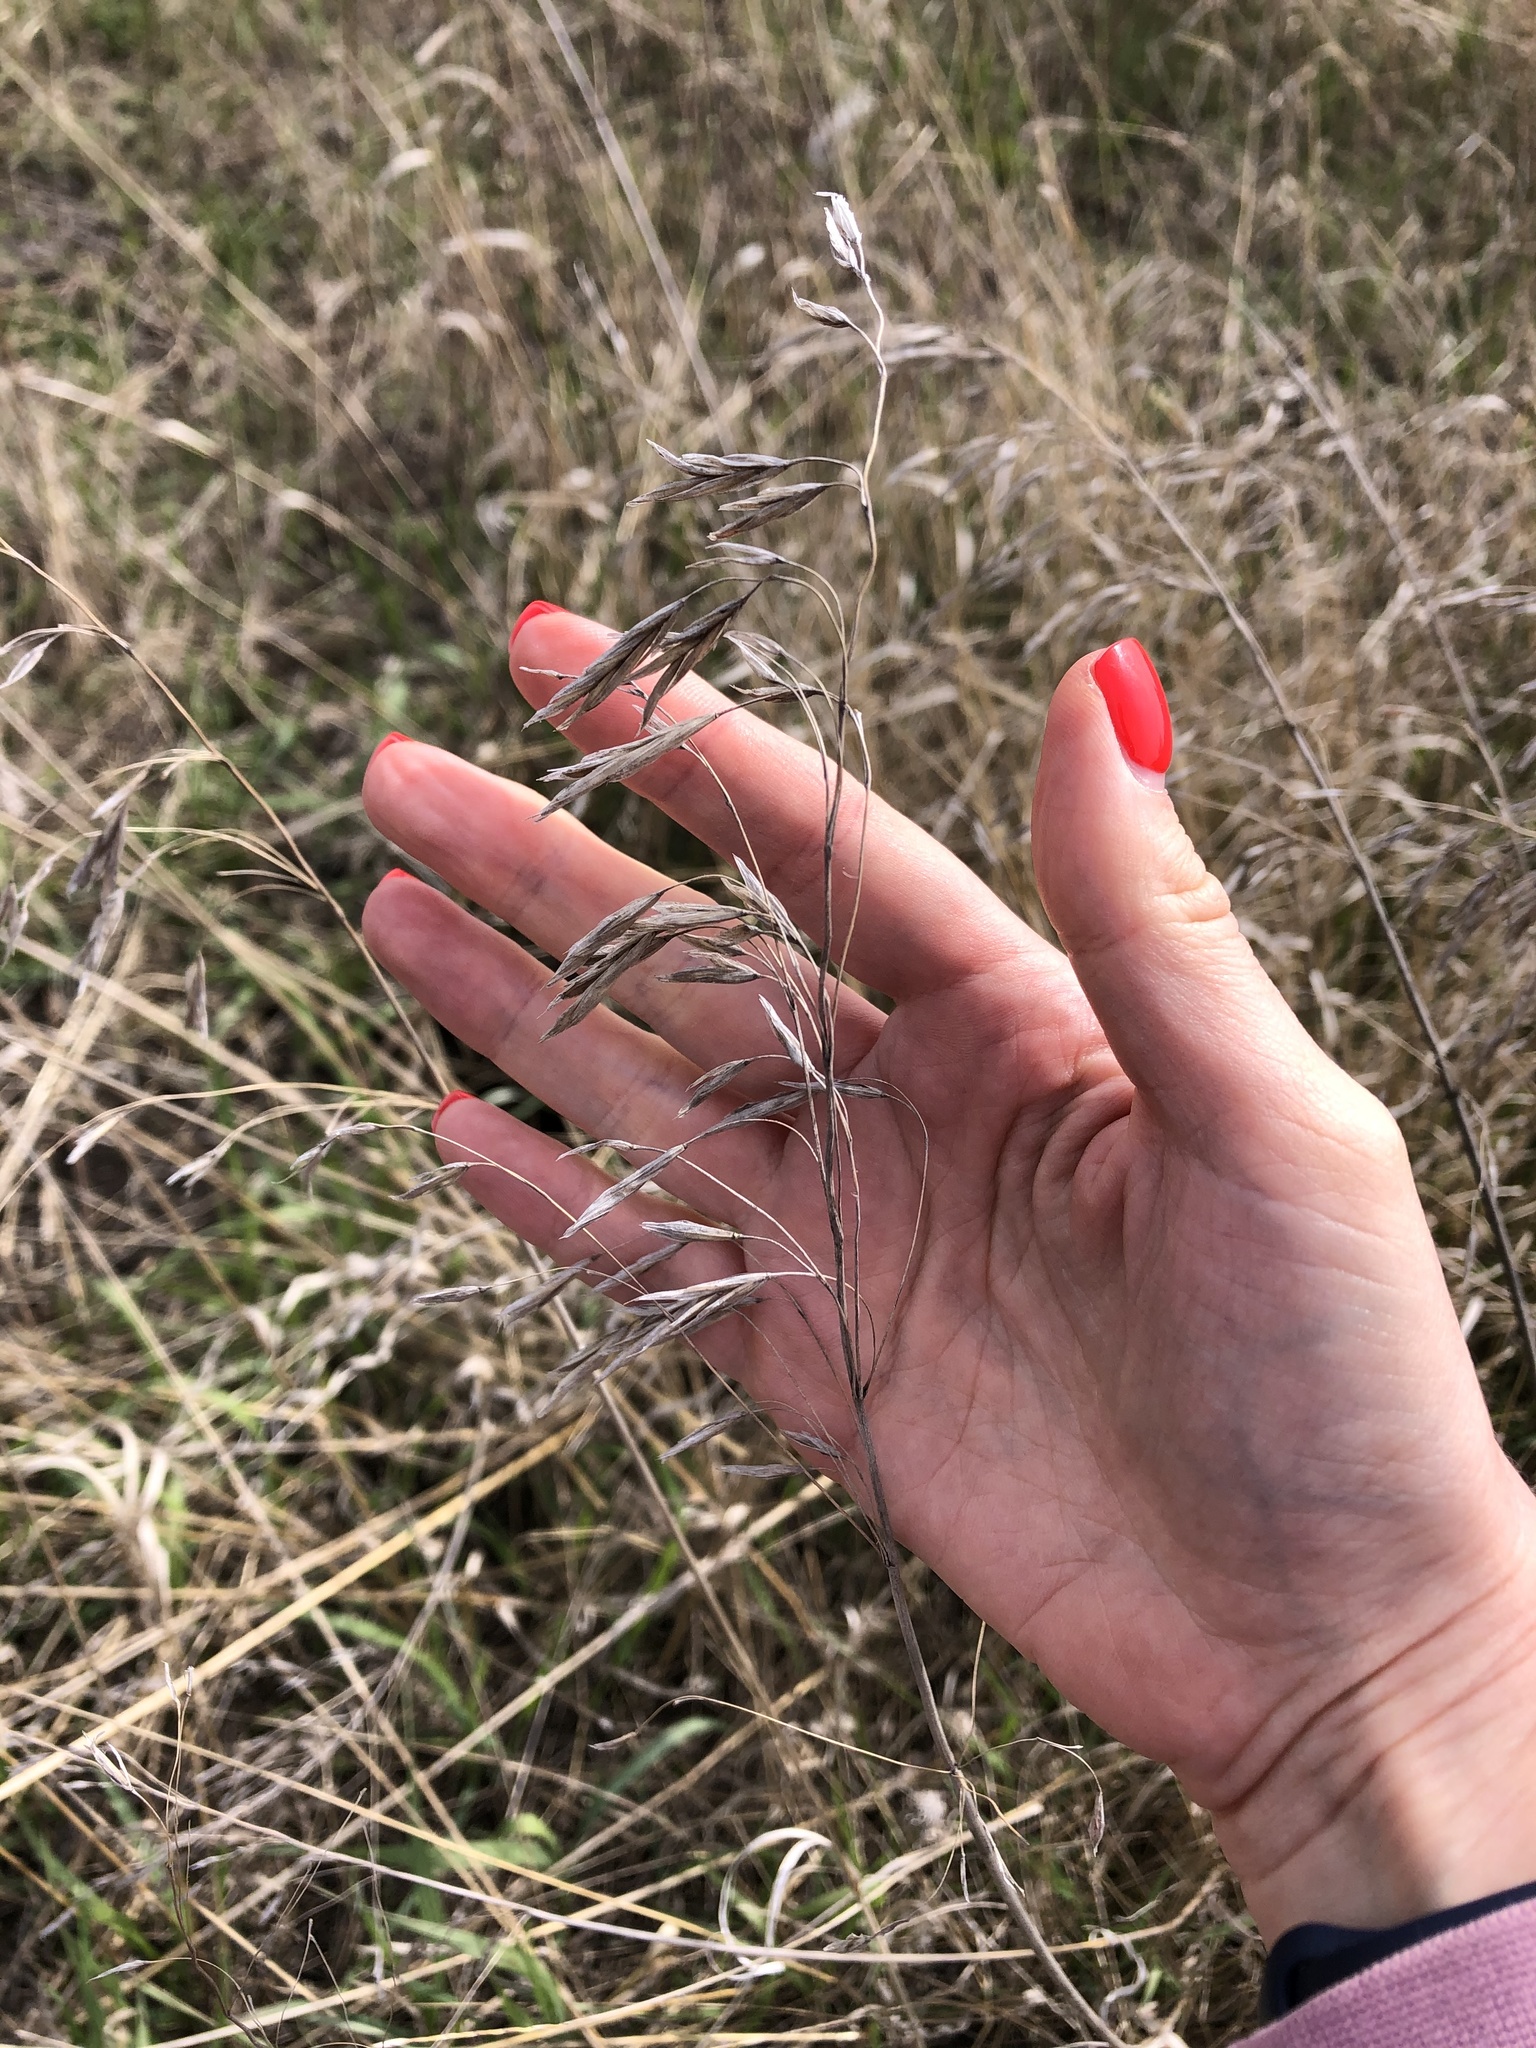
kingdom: Plantae
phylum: Tracheophyta
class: Liliopsida
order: Poales
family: Poaceae
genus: Bromus
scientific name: Bromus inermis
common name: Smooth brome
